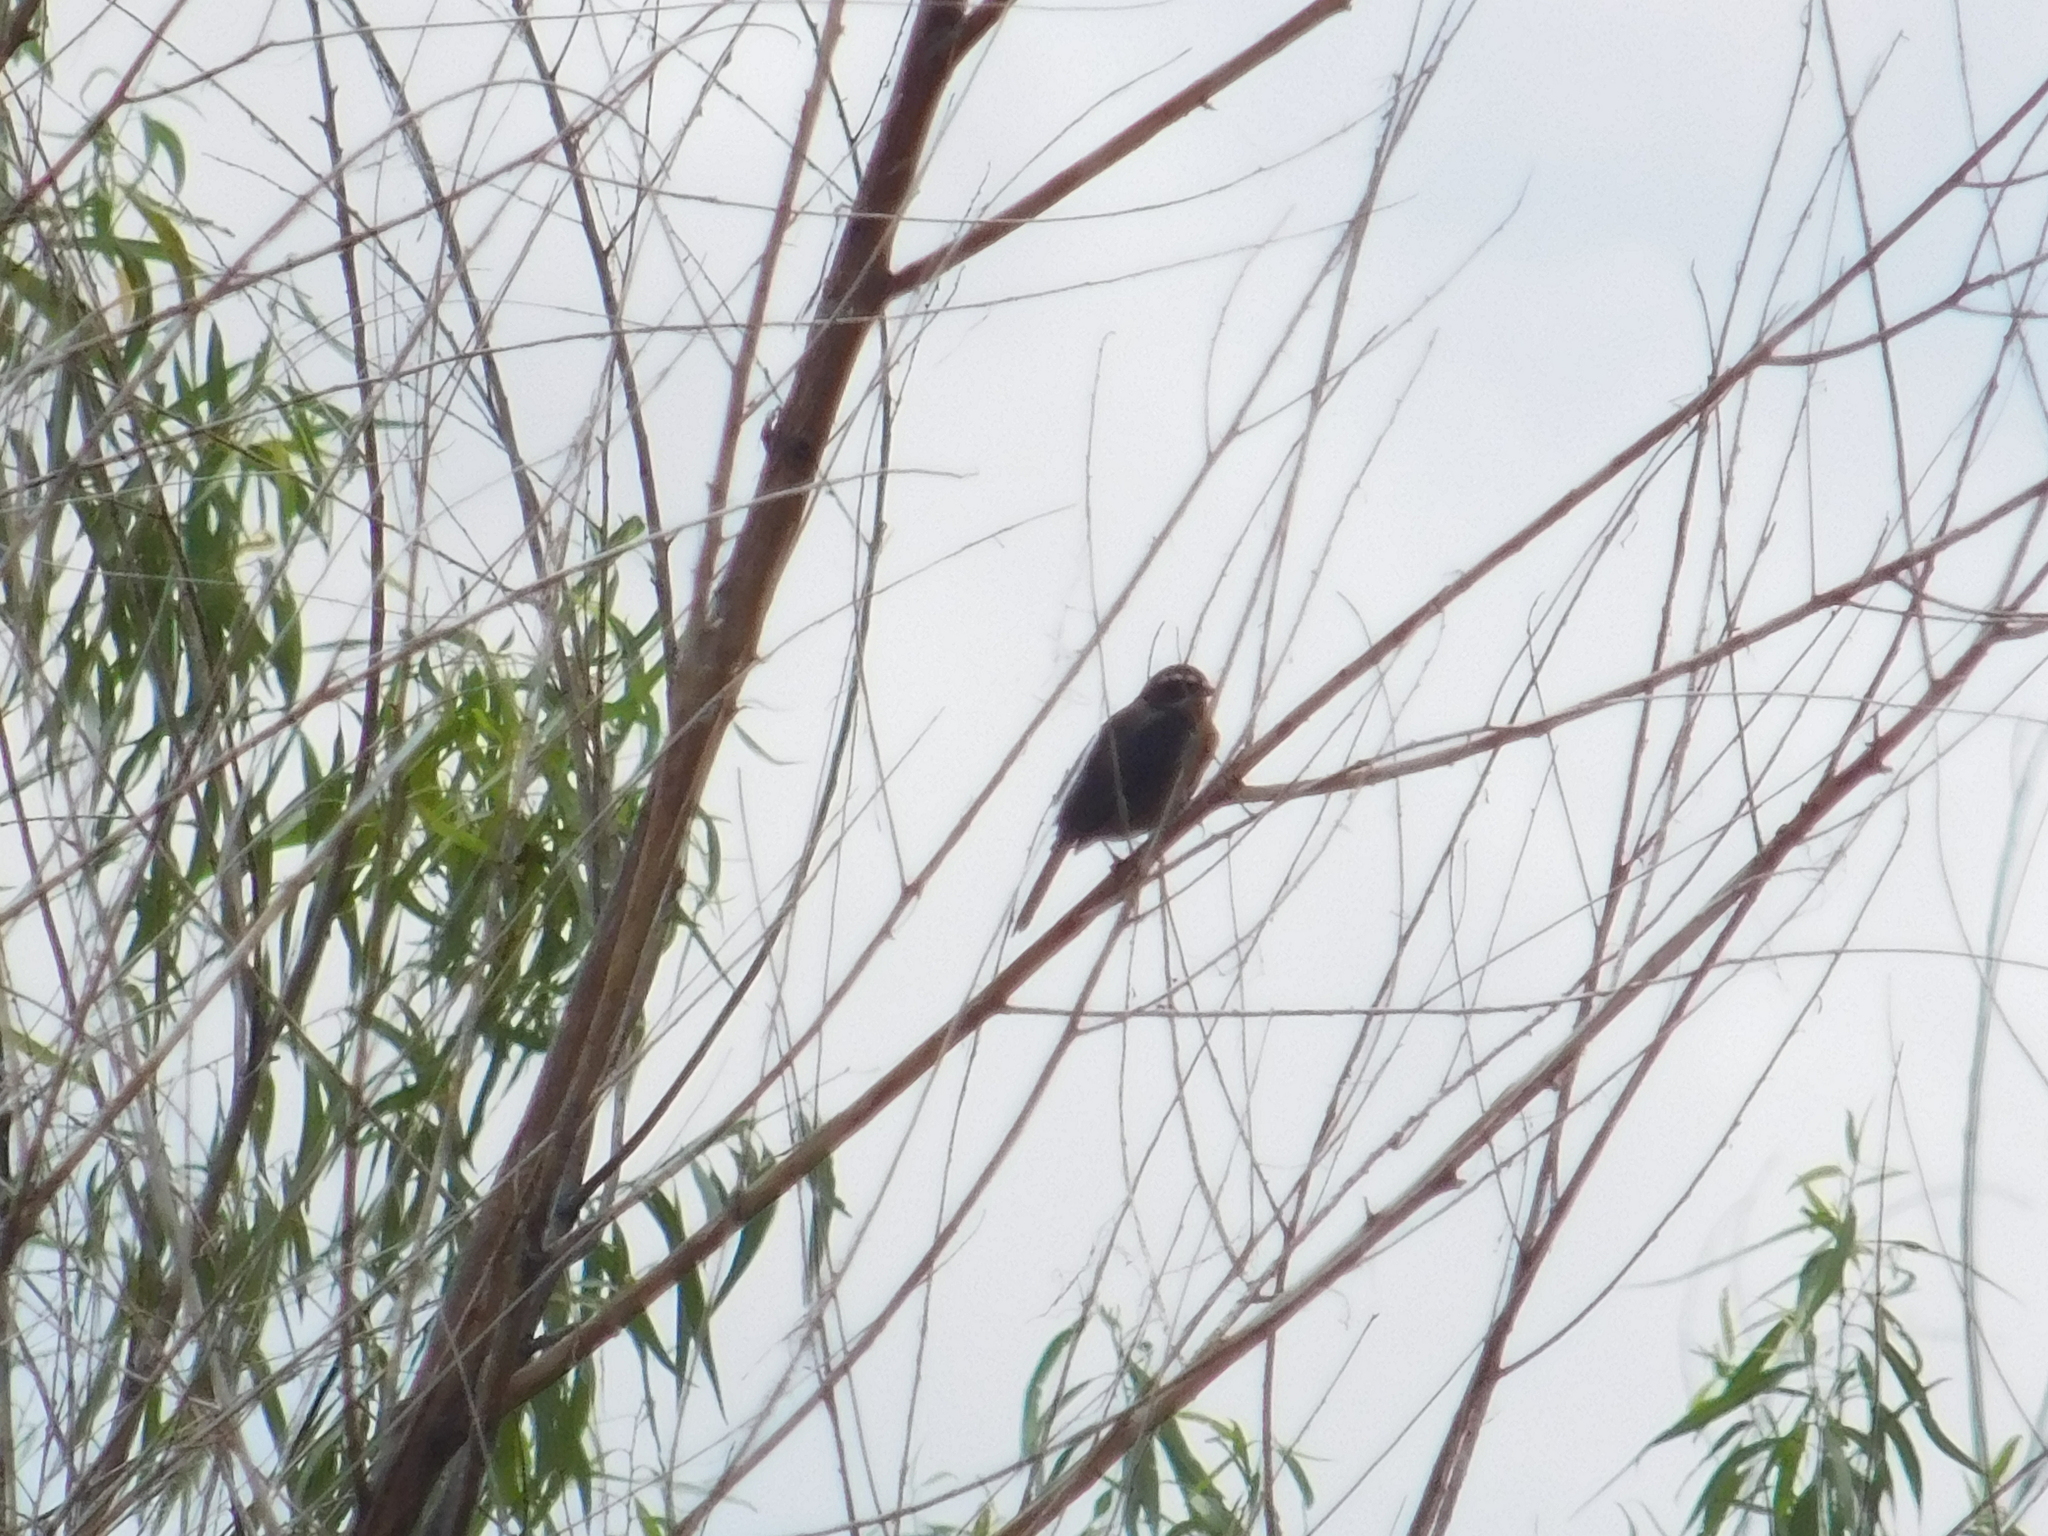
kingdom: Animalia
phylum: Chordata
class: Aves
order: Passeriformes
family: Thraupidae
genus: Poospiza
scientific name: Poospiza nigrorufa
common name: Black-and-rufous warbling finch
